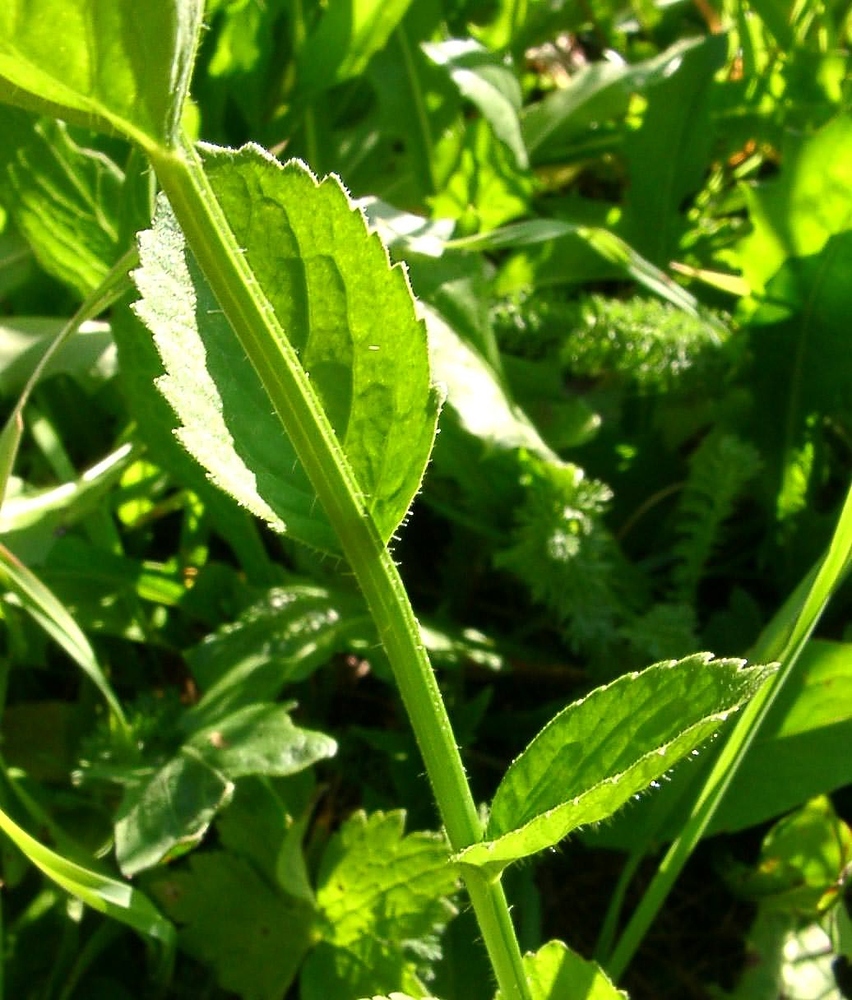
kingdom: Plantae
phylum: Tracheophyta
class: Magnoliopsida
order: Asterales
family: Campanulaceae
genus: Campanula
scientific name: Campanula rhomboidalis
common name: Broad-leaved harebell
